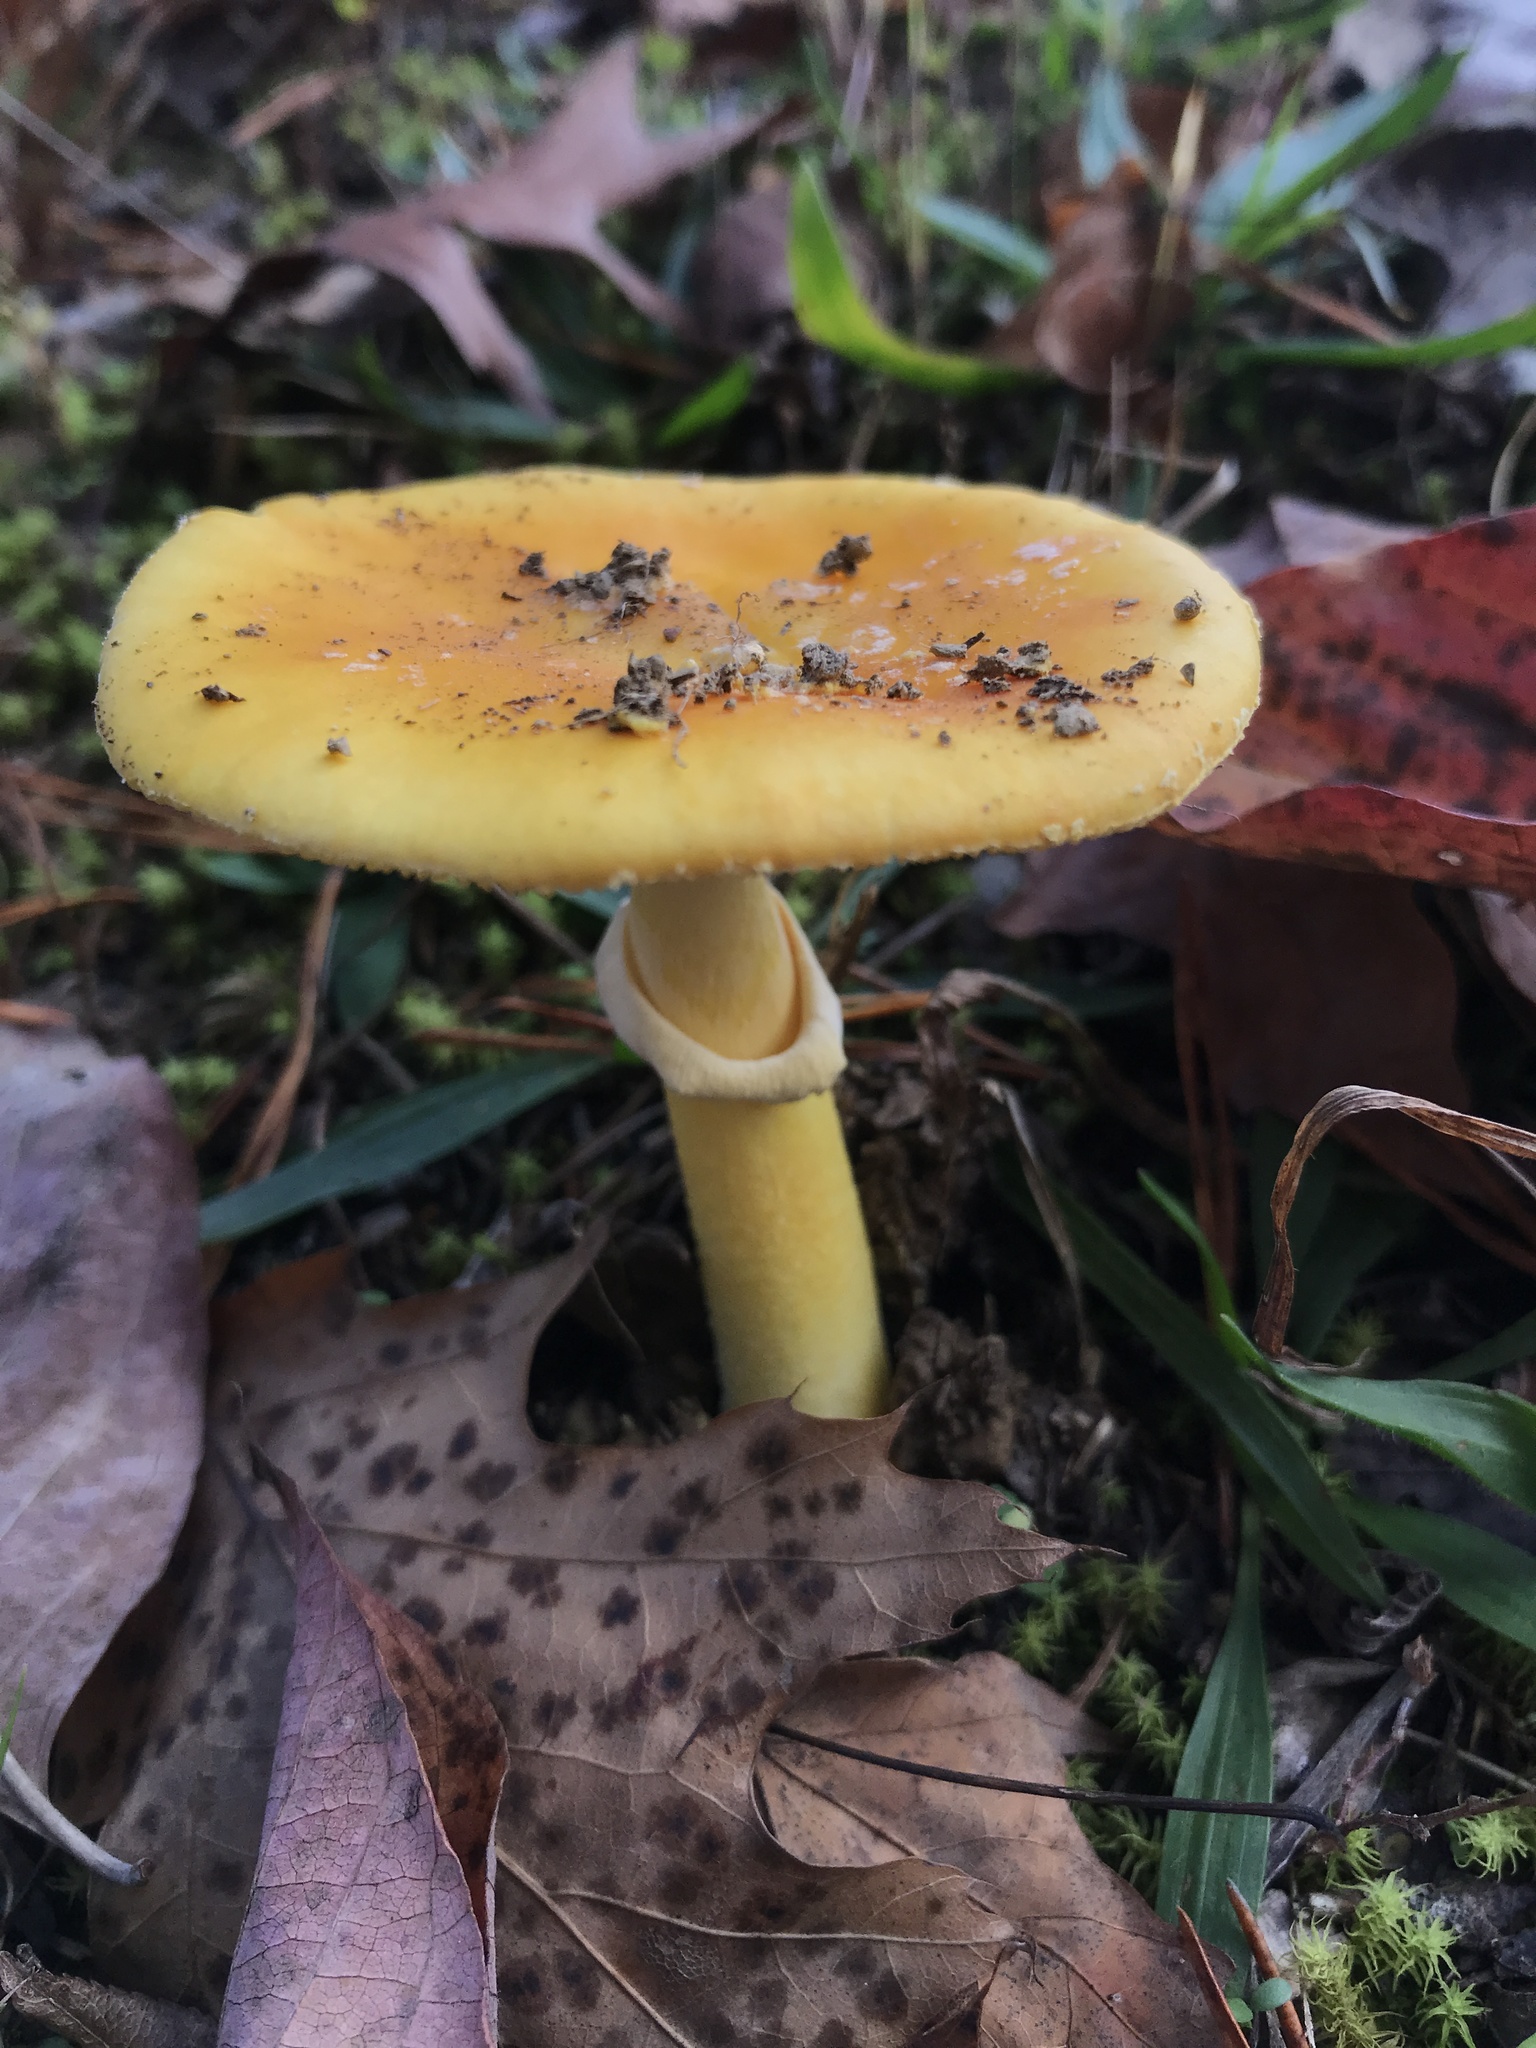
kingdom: Fungi
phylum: Basidiomycota
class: Agaricomycetes
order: Agaricales
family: Amanitaceae
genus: Amanita
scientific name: Amanita flavoconia
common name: Yellow patches
